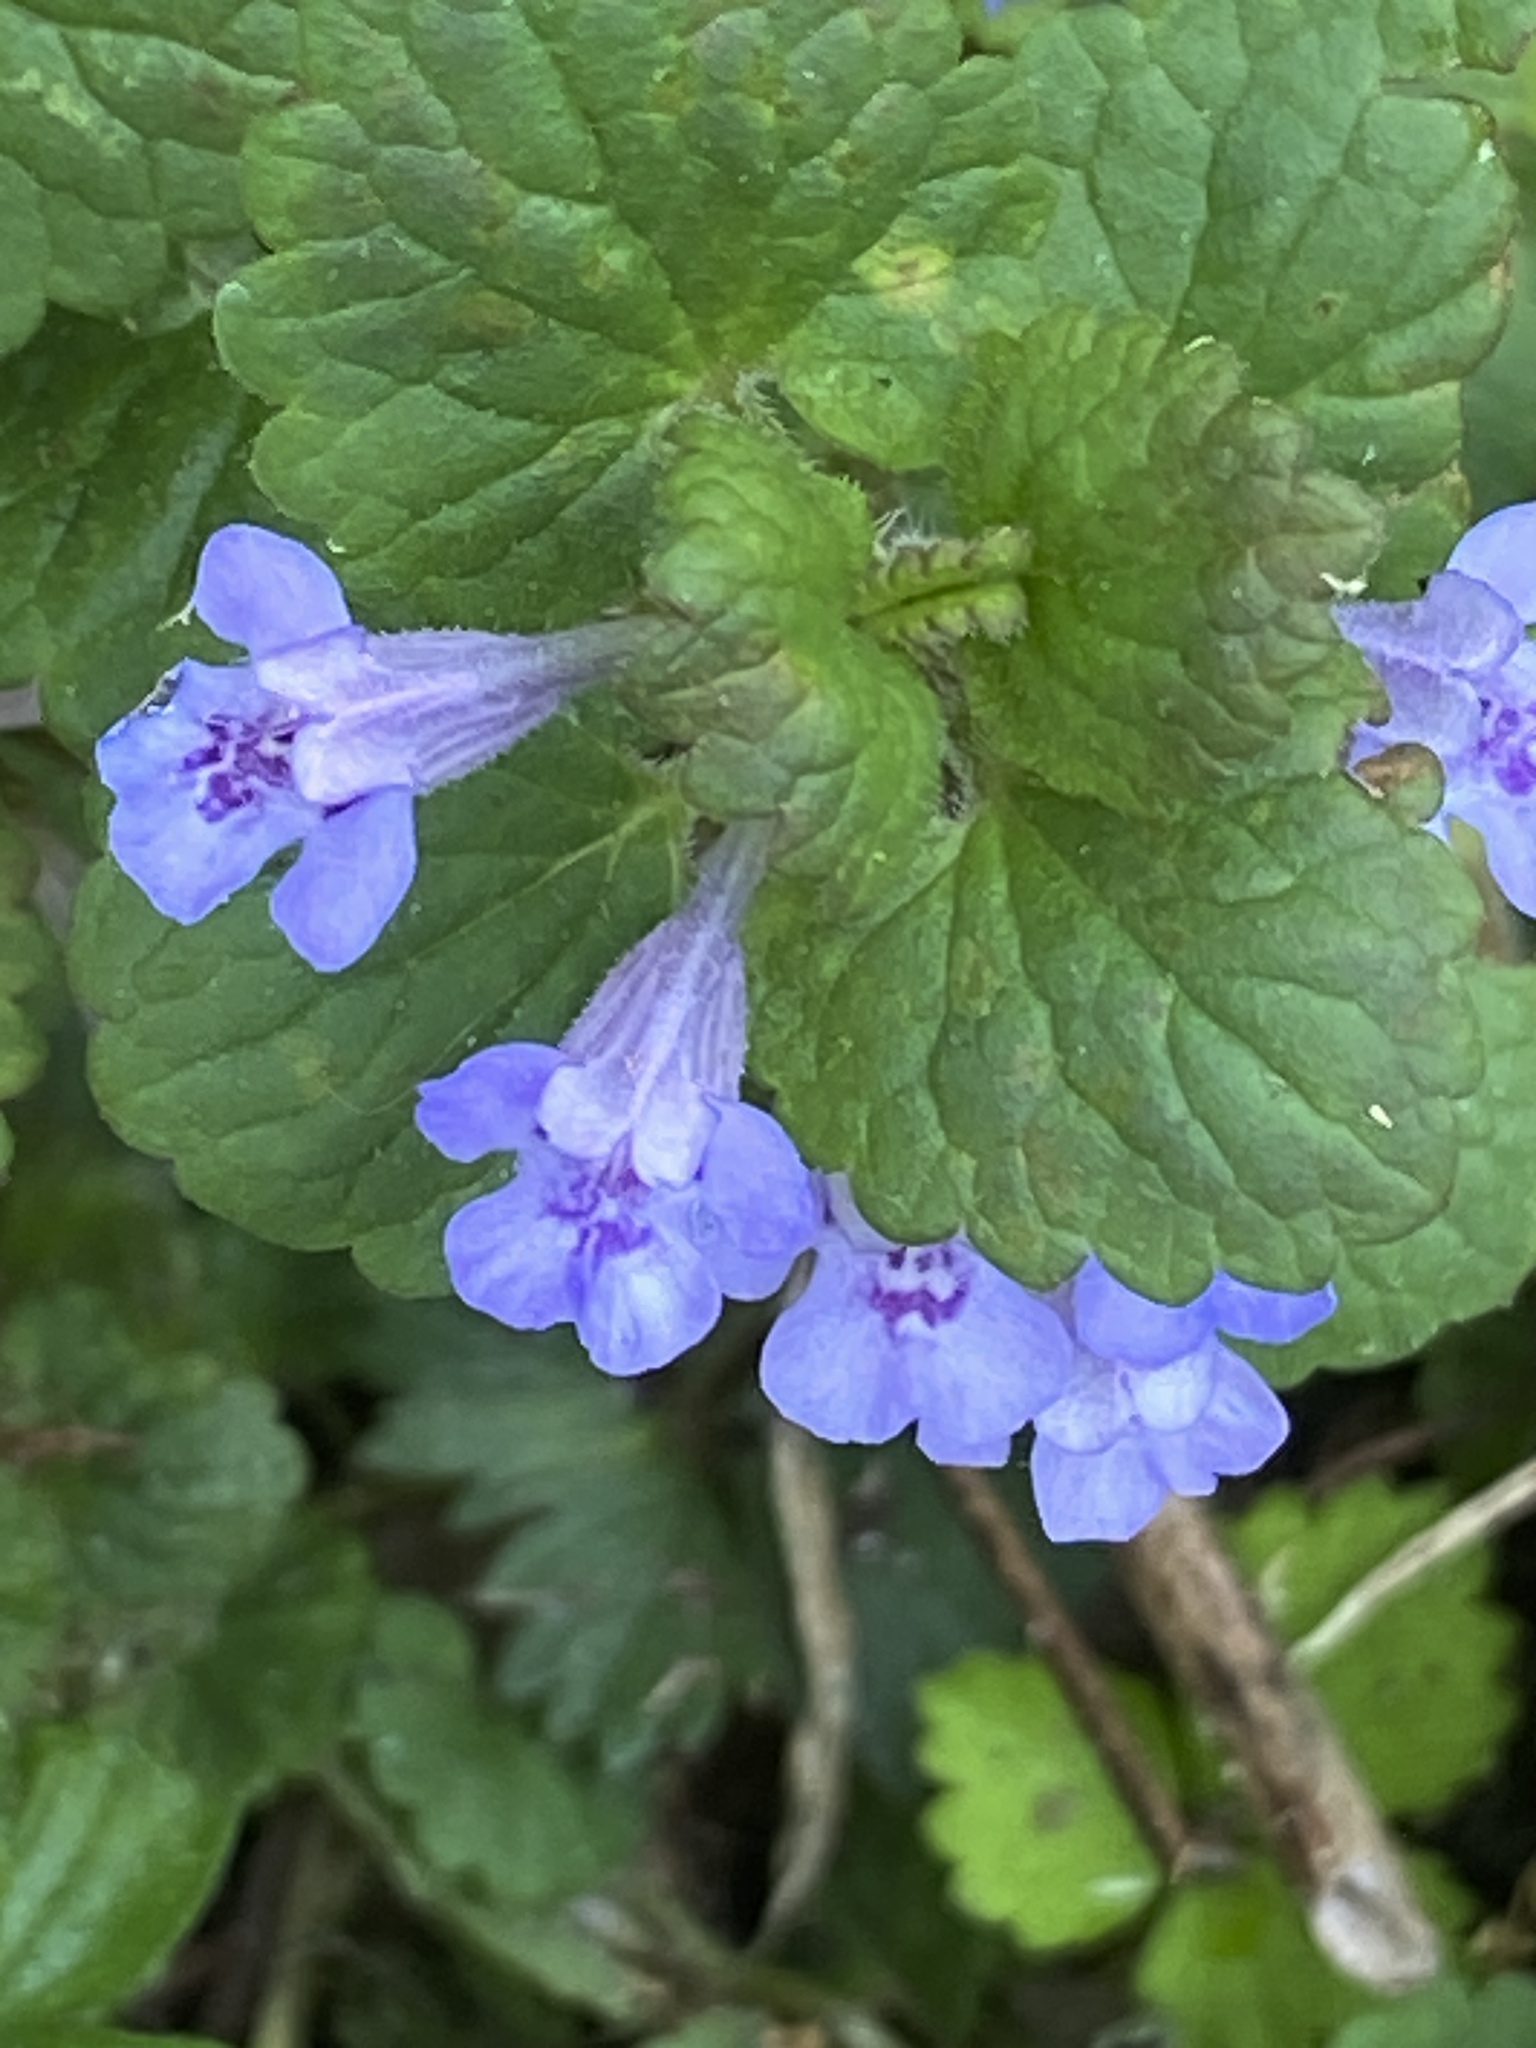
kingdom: Plantae
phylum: Tracheophyta
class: Magnoliopsida
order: Lamiales
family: Lamiaceae
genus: Glechoma
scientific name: Glechoma hederacea
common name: Ground ivy
